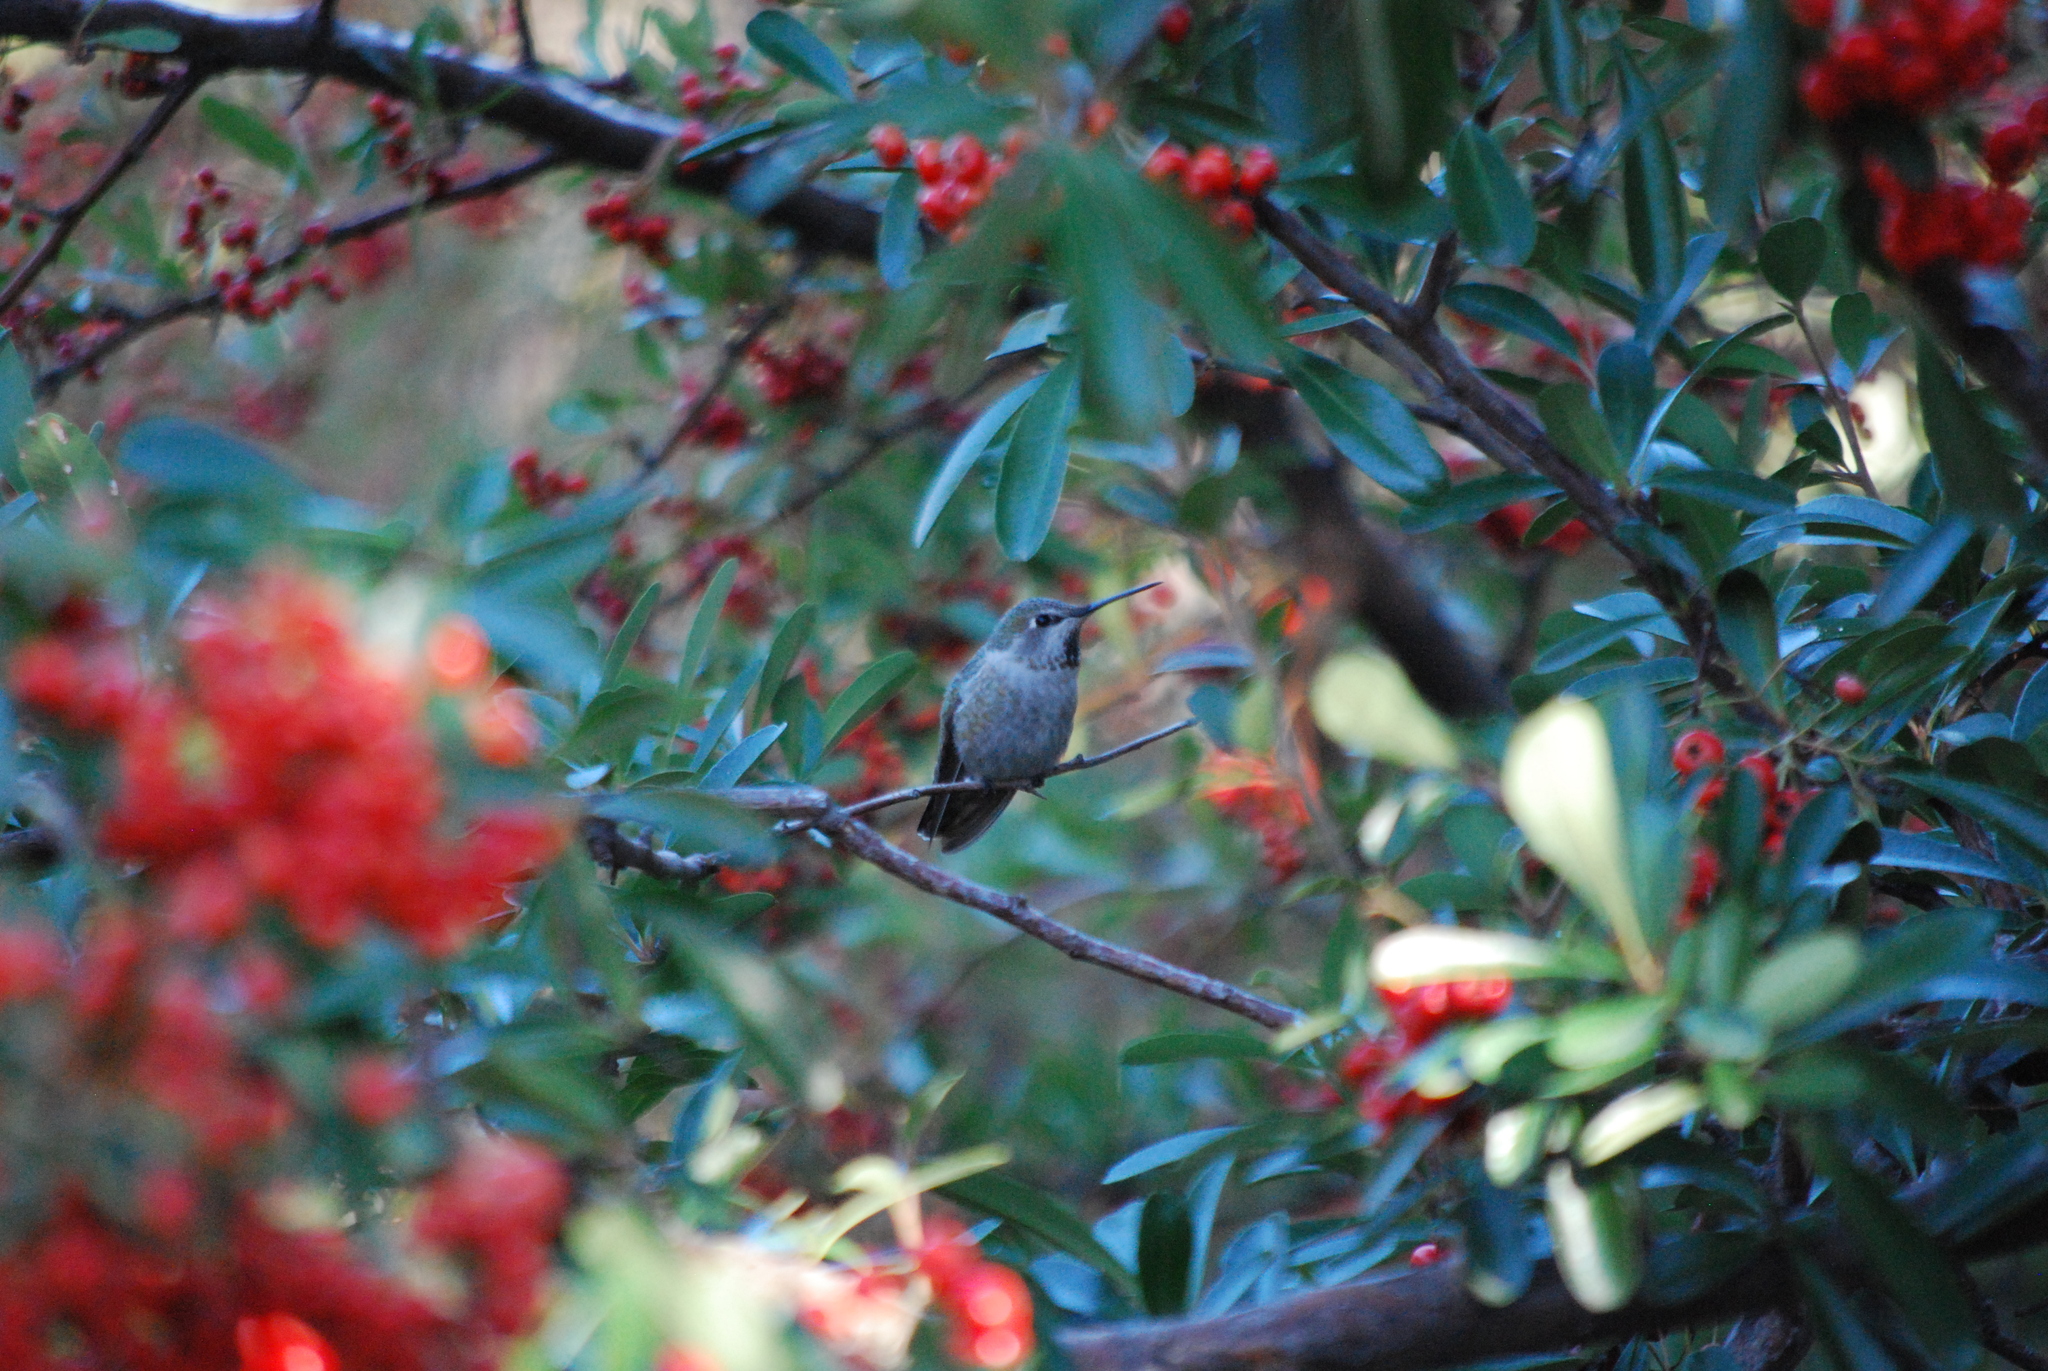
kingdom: Animalia
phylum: Chordata
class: Aves
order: Apodiformes
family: Trochilidae
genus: Calypte
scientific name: Calypte anna
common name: Anna's hummingbird
